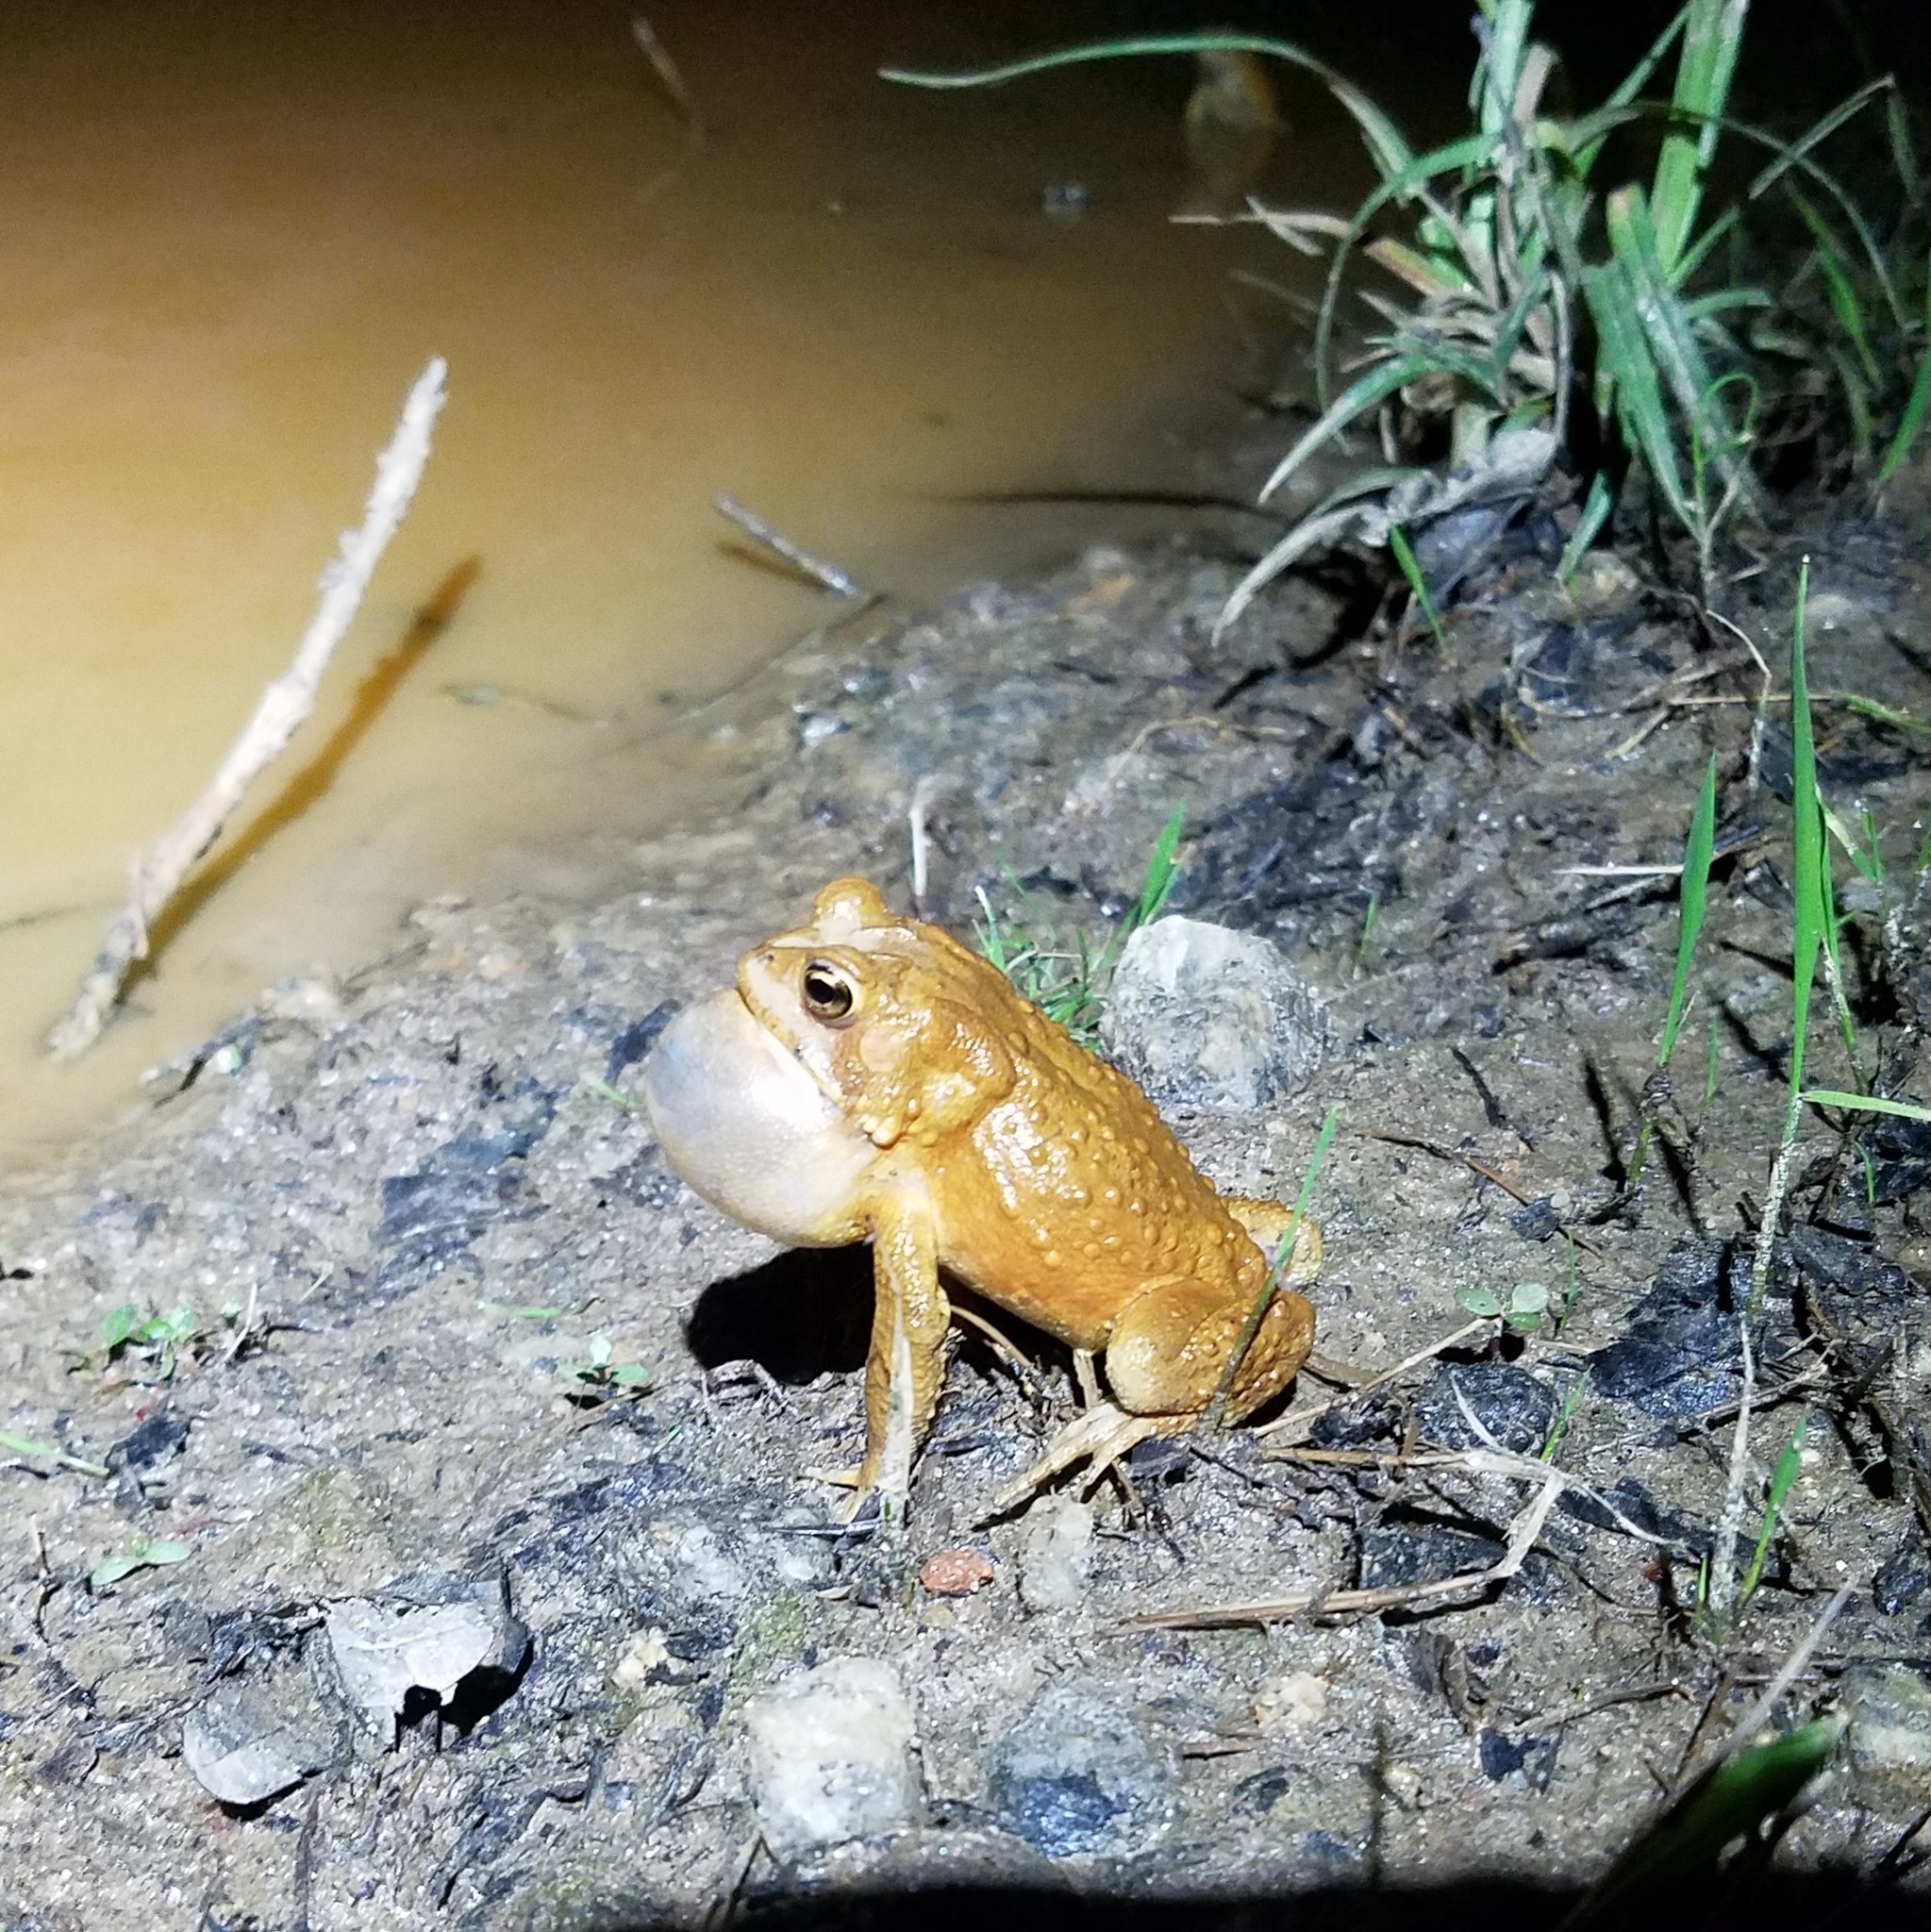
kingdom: Animalia
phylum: Chordata
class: Amphibia
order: Anura
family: Bufonidae
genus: Anaxyrus
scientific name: Anaxyrus americanus
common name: American toad
